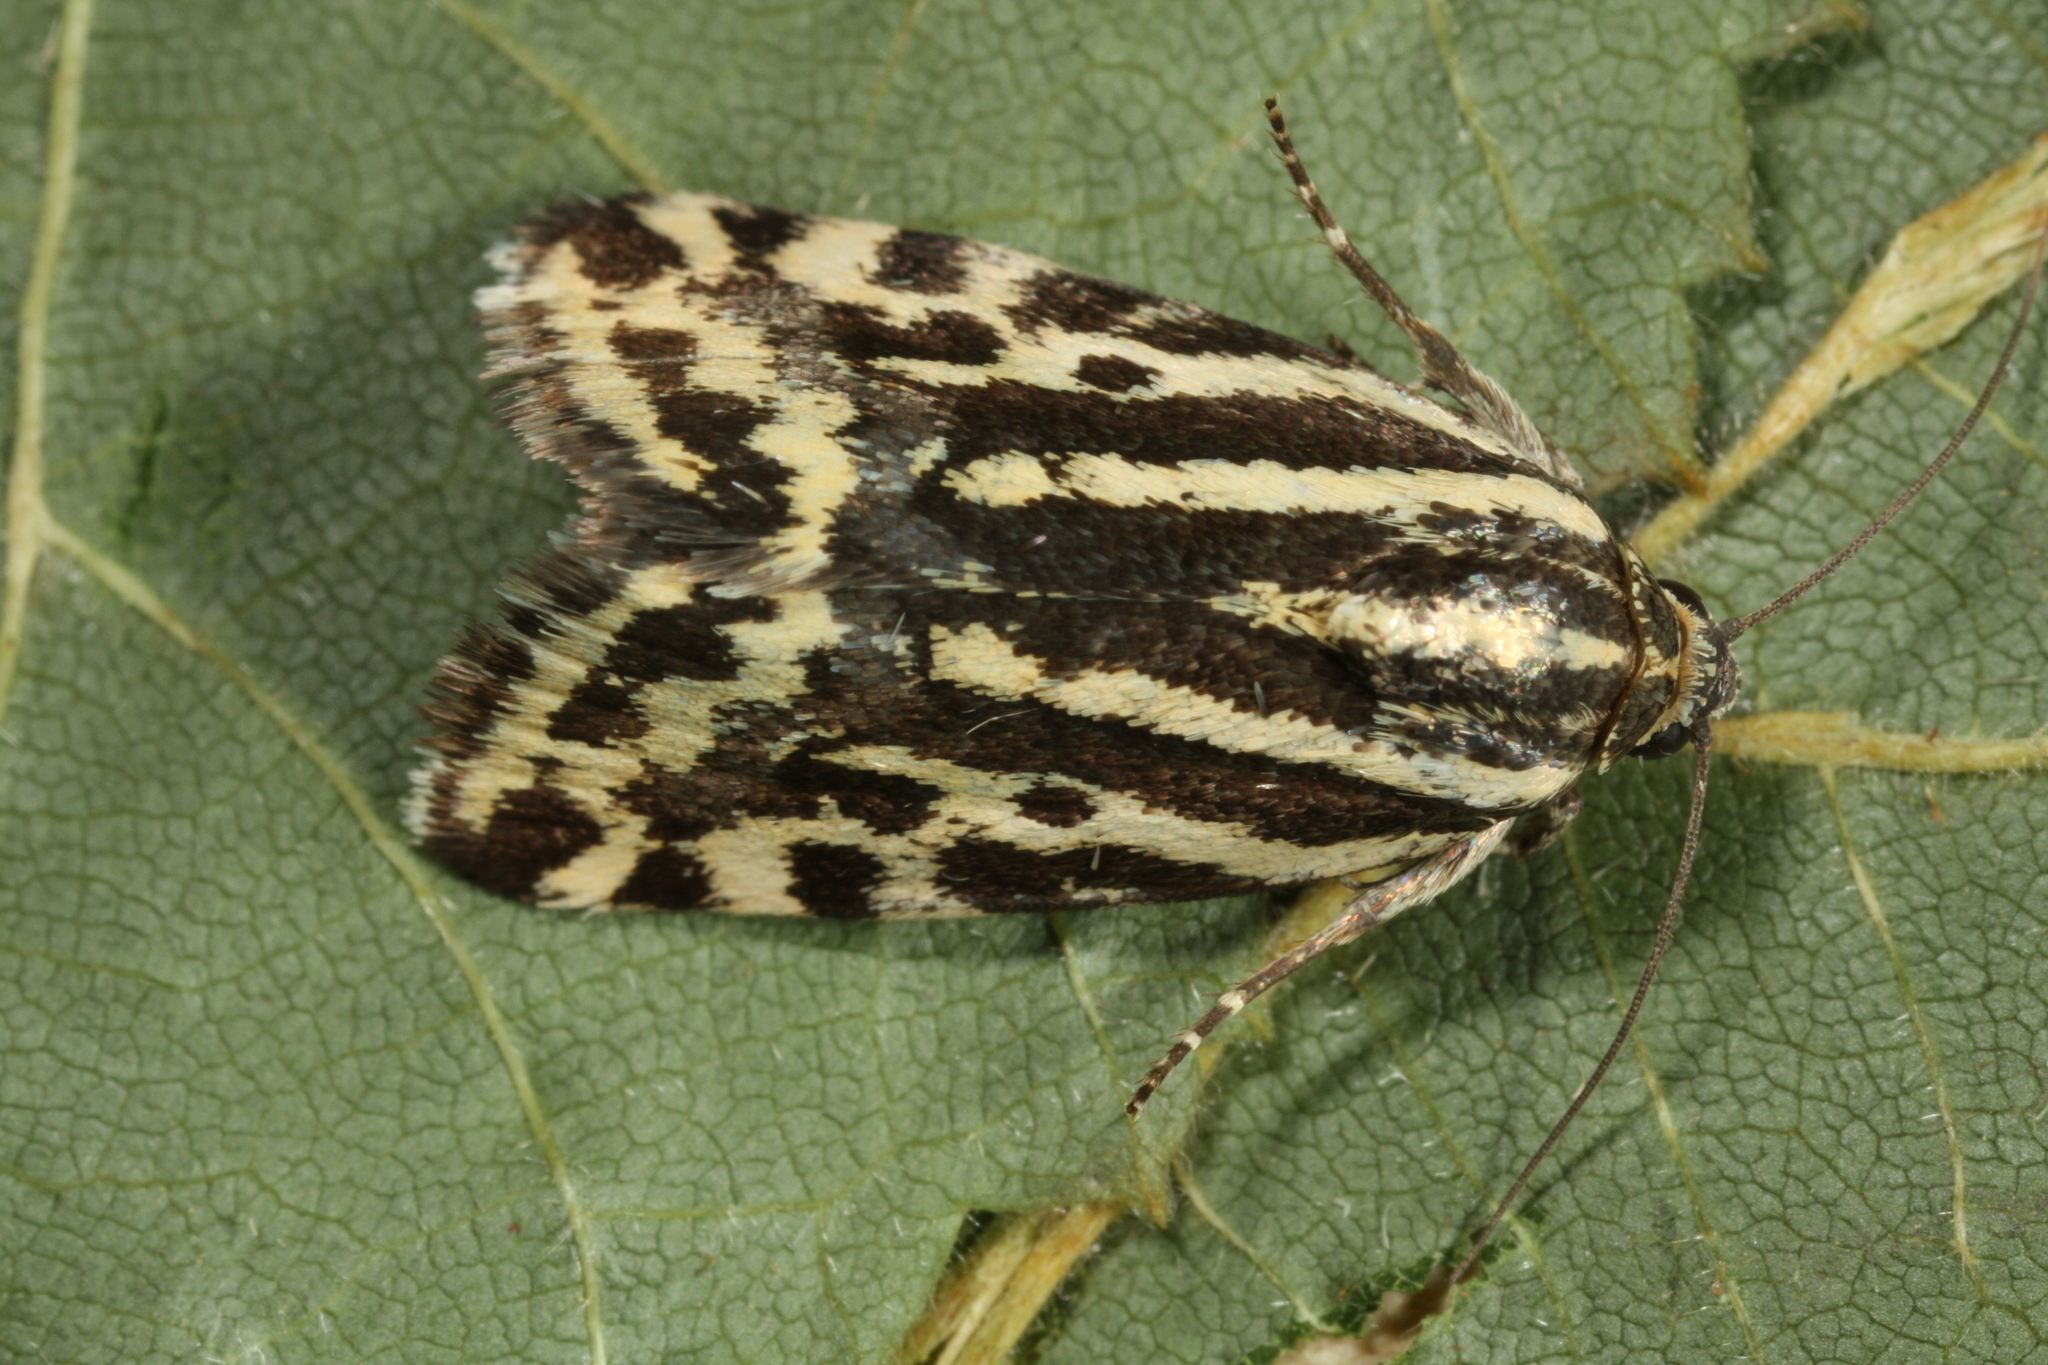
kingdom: Animalia
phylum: Arthropoda
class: Insecta
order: Lepidoptera
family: Noctuidae
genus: Acontia
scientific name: Acontia trabealis
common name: Spotted sulphur
